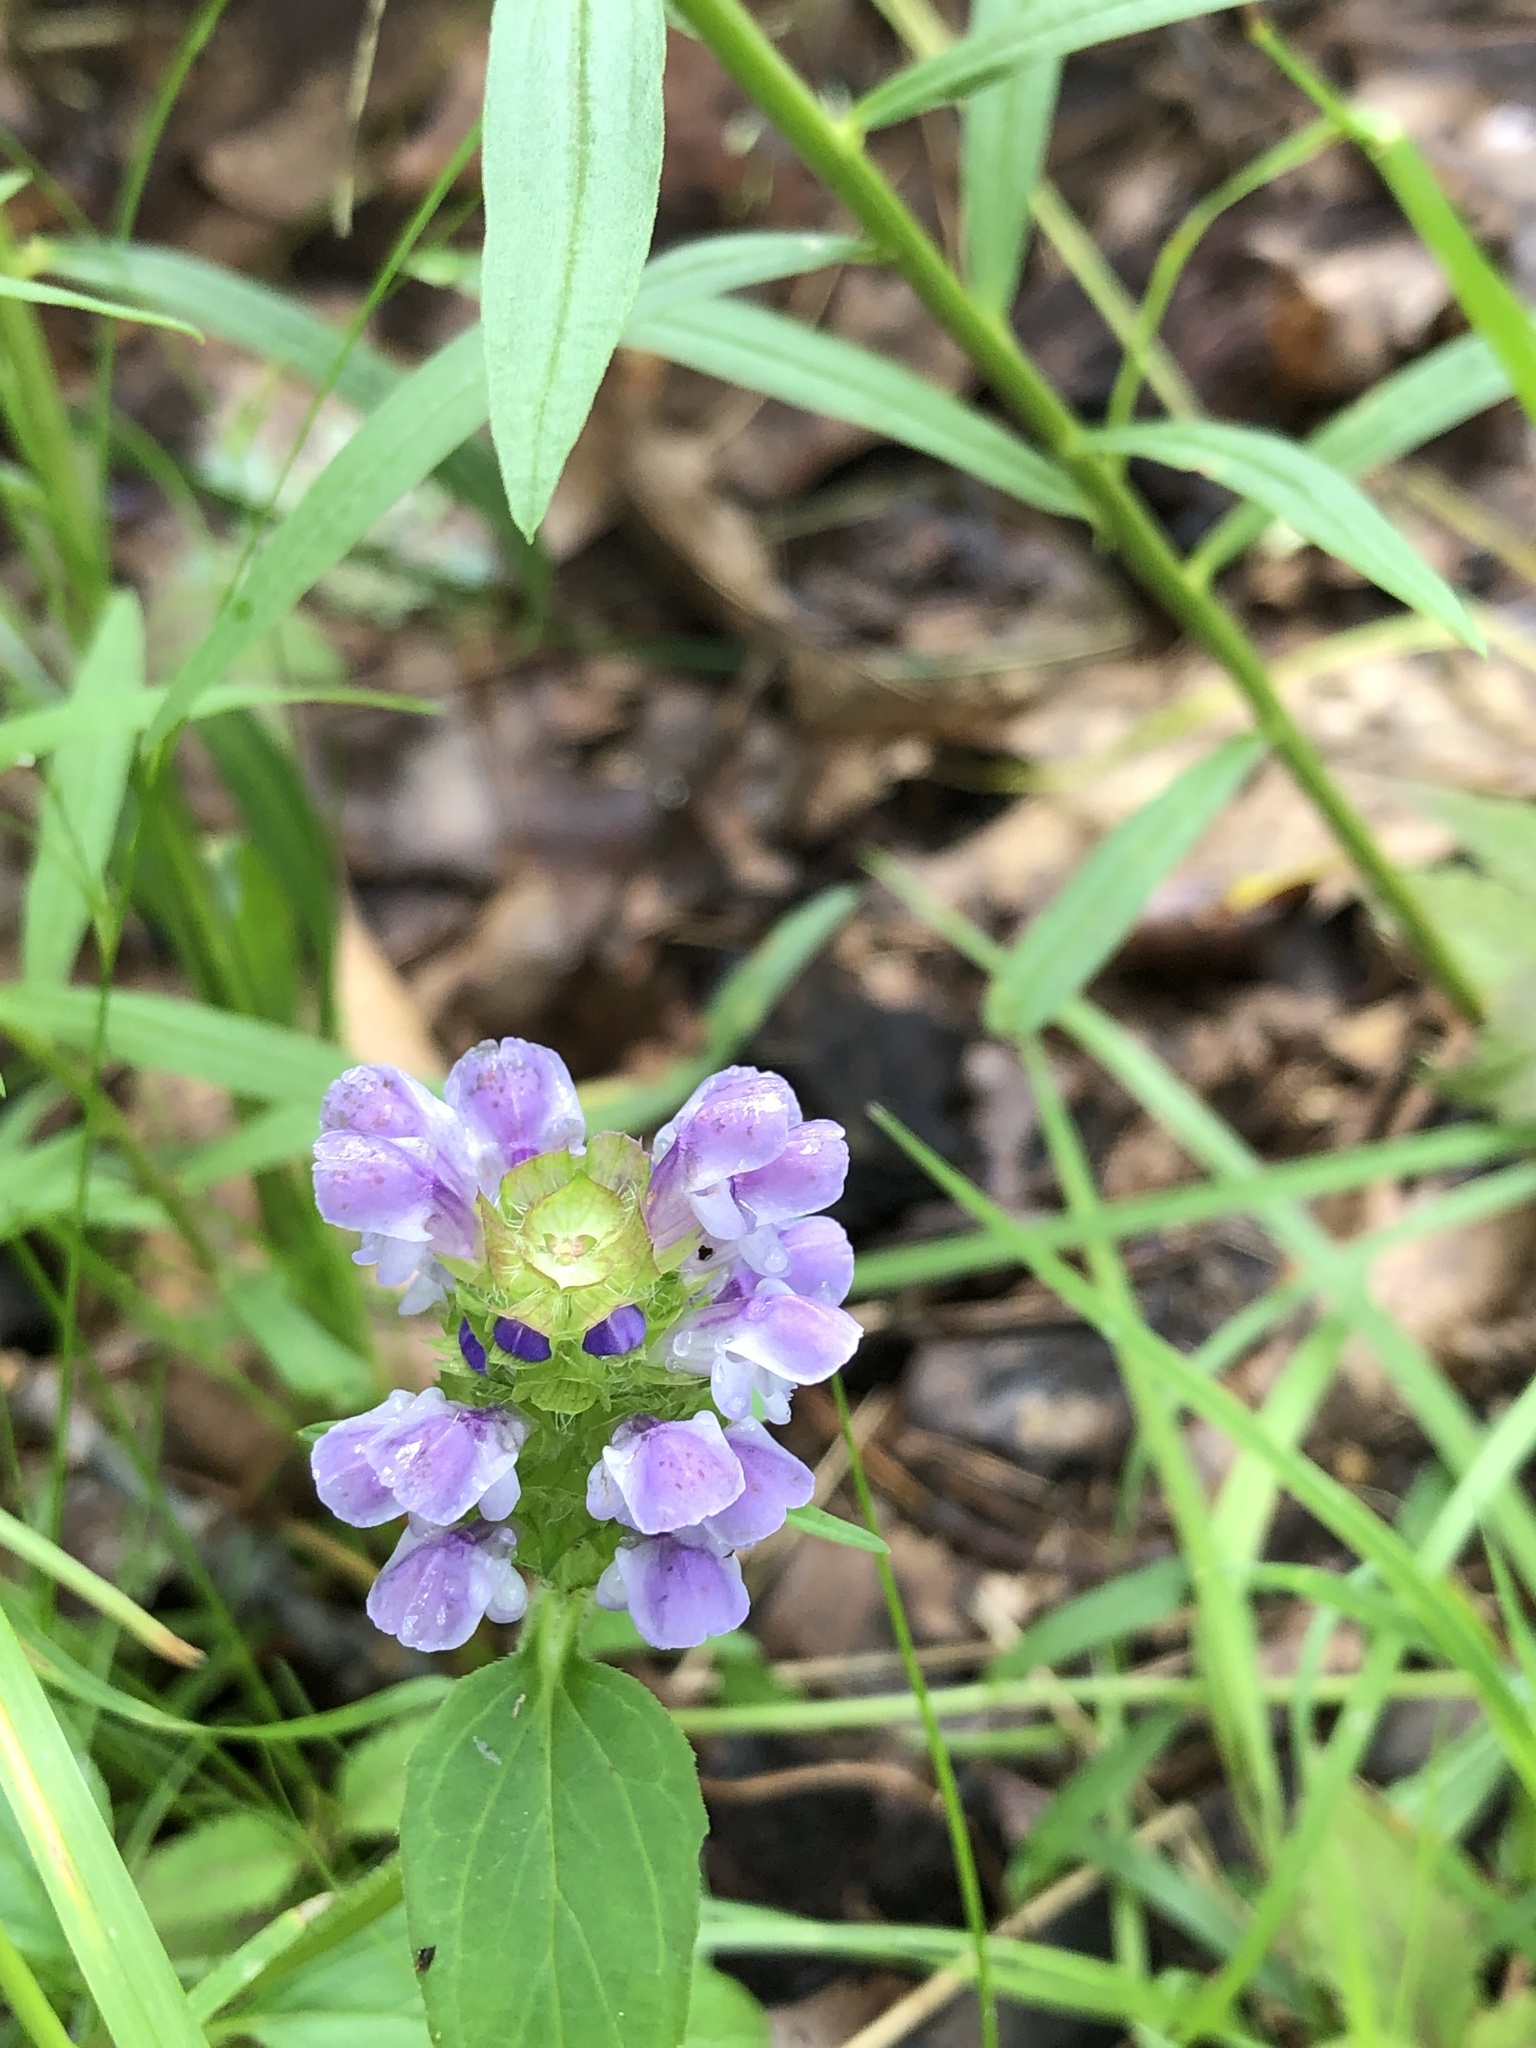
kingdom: Plantae
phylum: Tracheophyta
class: Magnoliopsida
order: Lamiales
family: Lamiaceae
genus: Prunella
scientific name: Prunella vulgaris
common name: Heal-all
